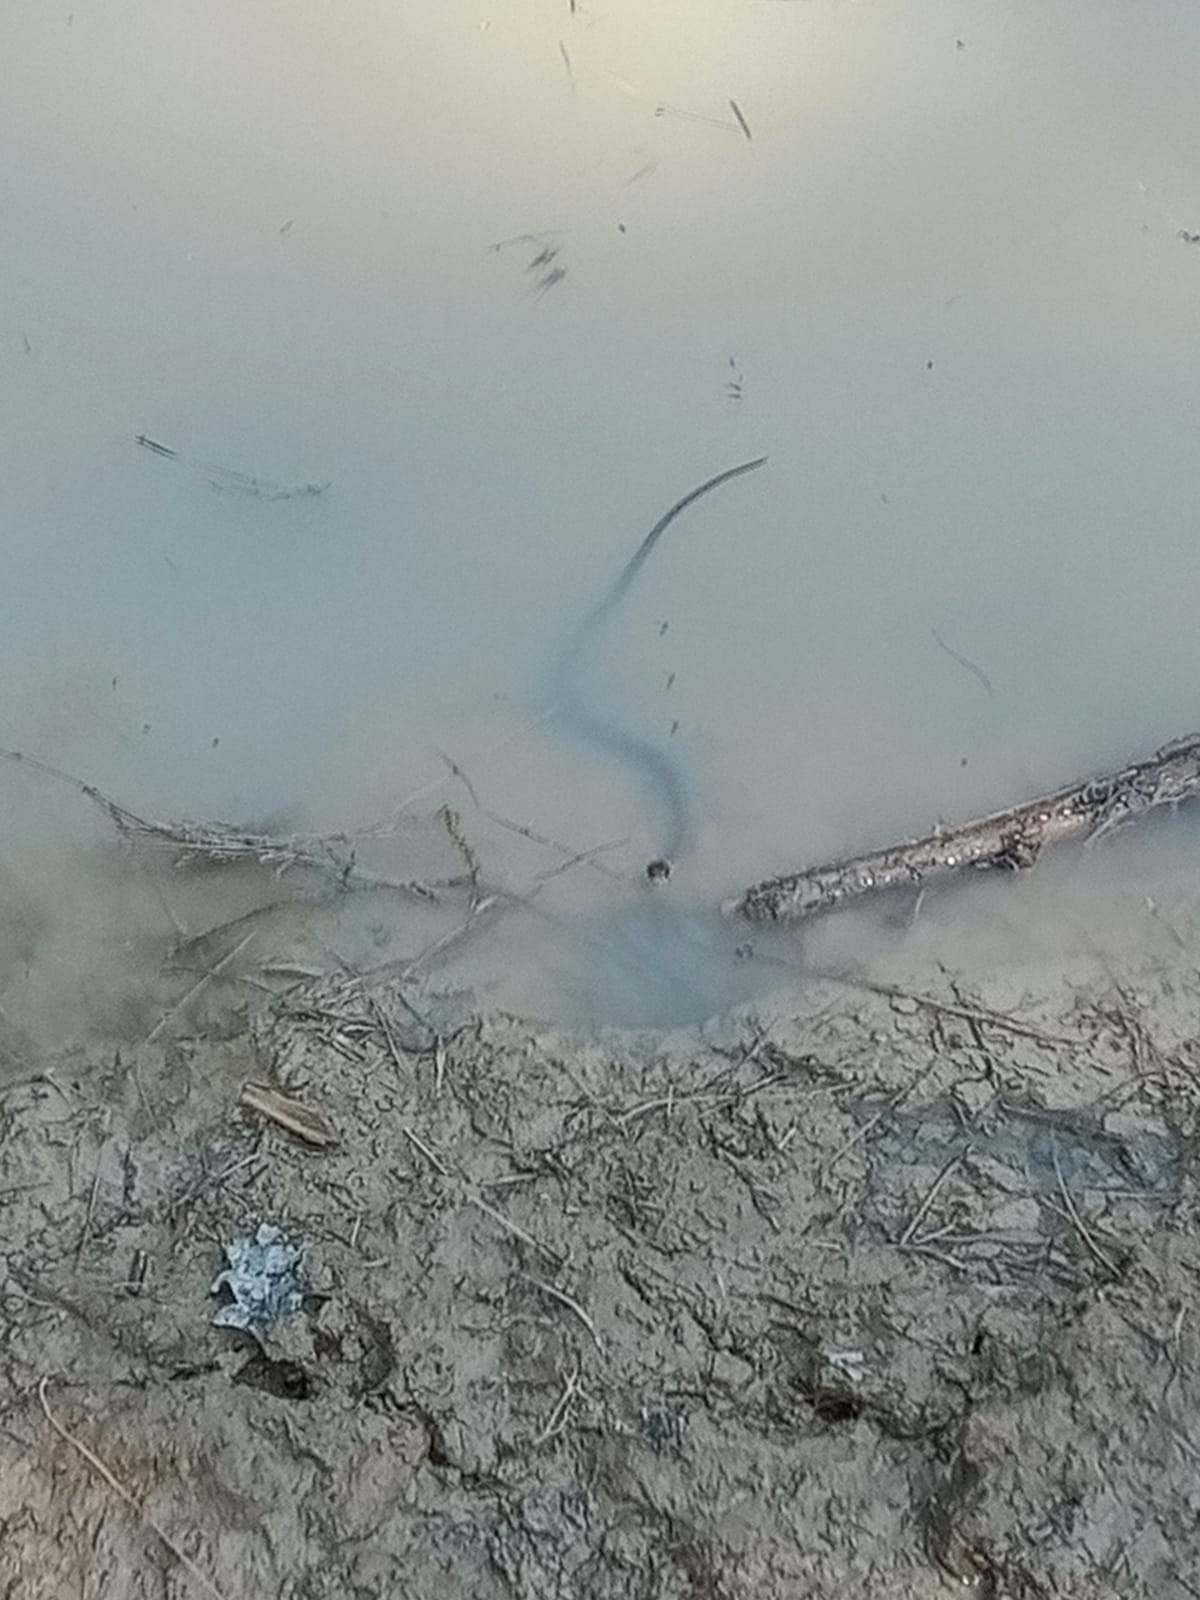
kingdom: Animalia
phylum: Chordata
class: Squamata
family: Colubridae
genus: Natrix
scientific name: Natrix helvetica
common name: Banded grass snake
